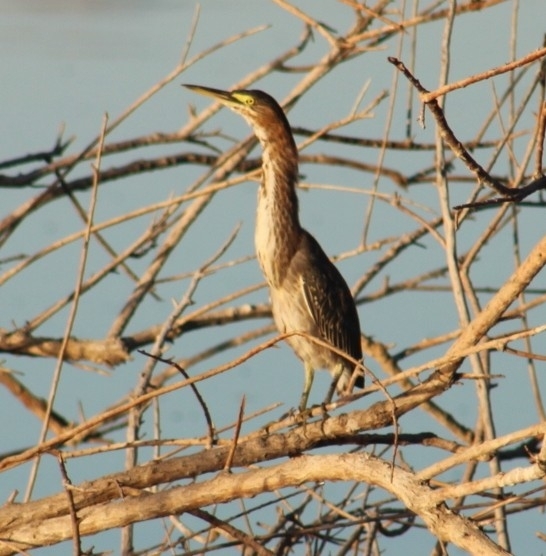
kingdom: Animalia
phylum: Chordata
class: Aves
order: Pelecaniformes
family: Ardeidae
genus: Butorides
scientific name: Butorides virescens
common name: Green heron
